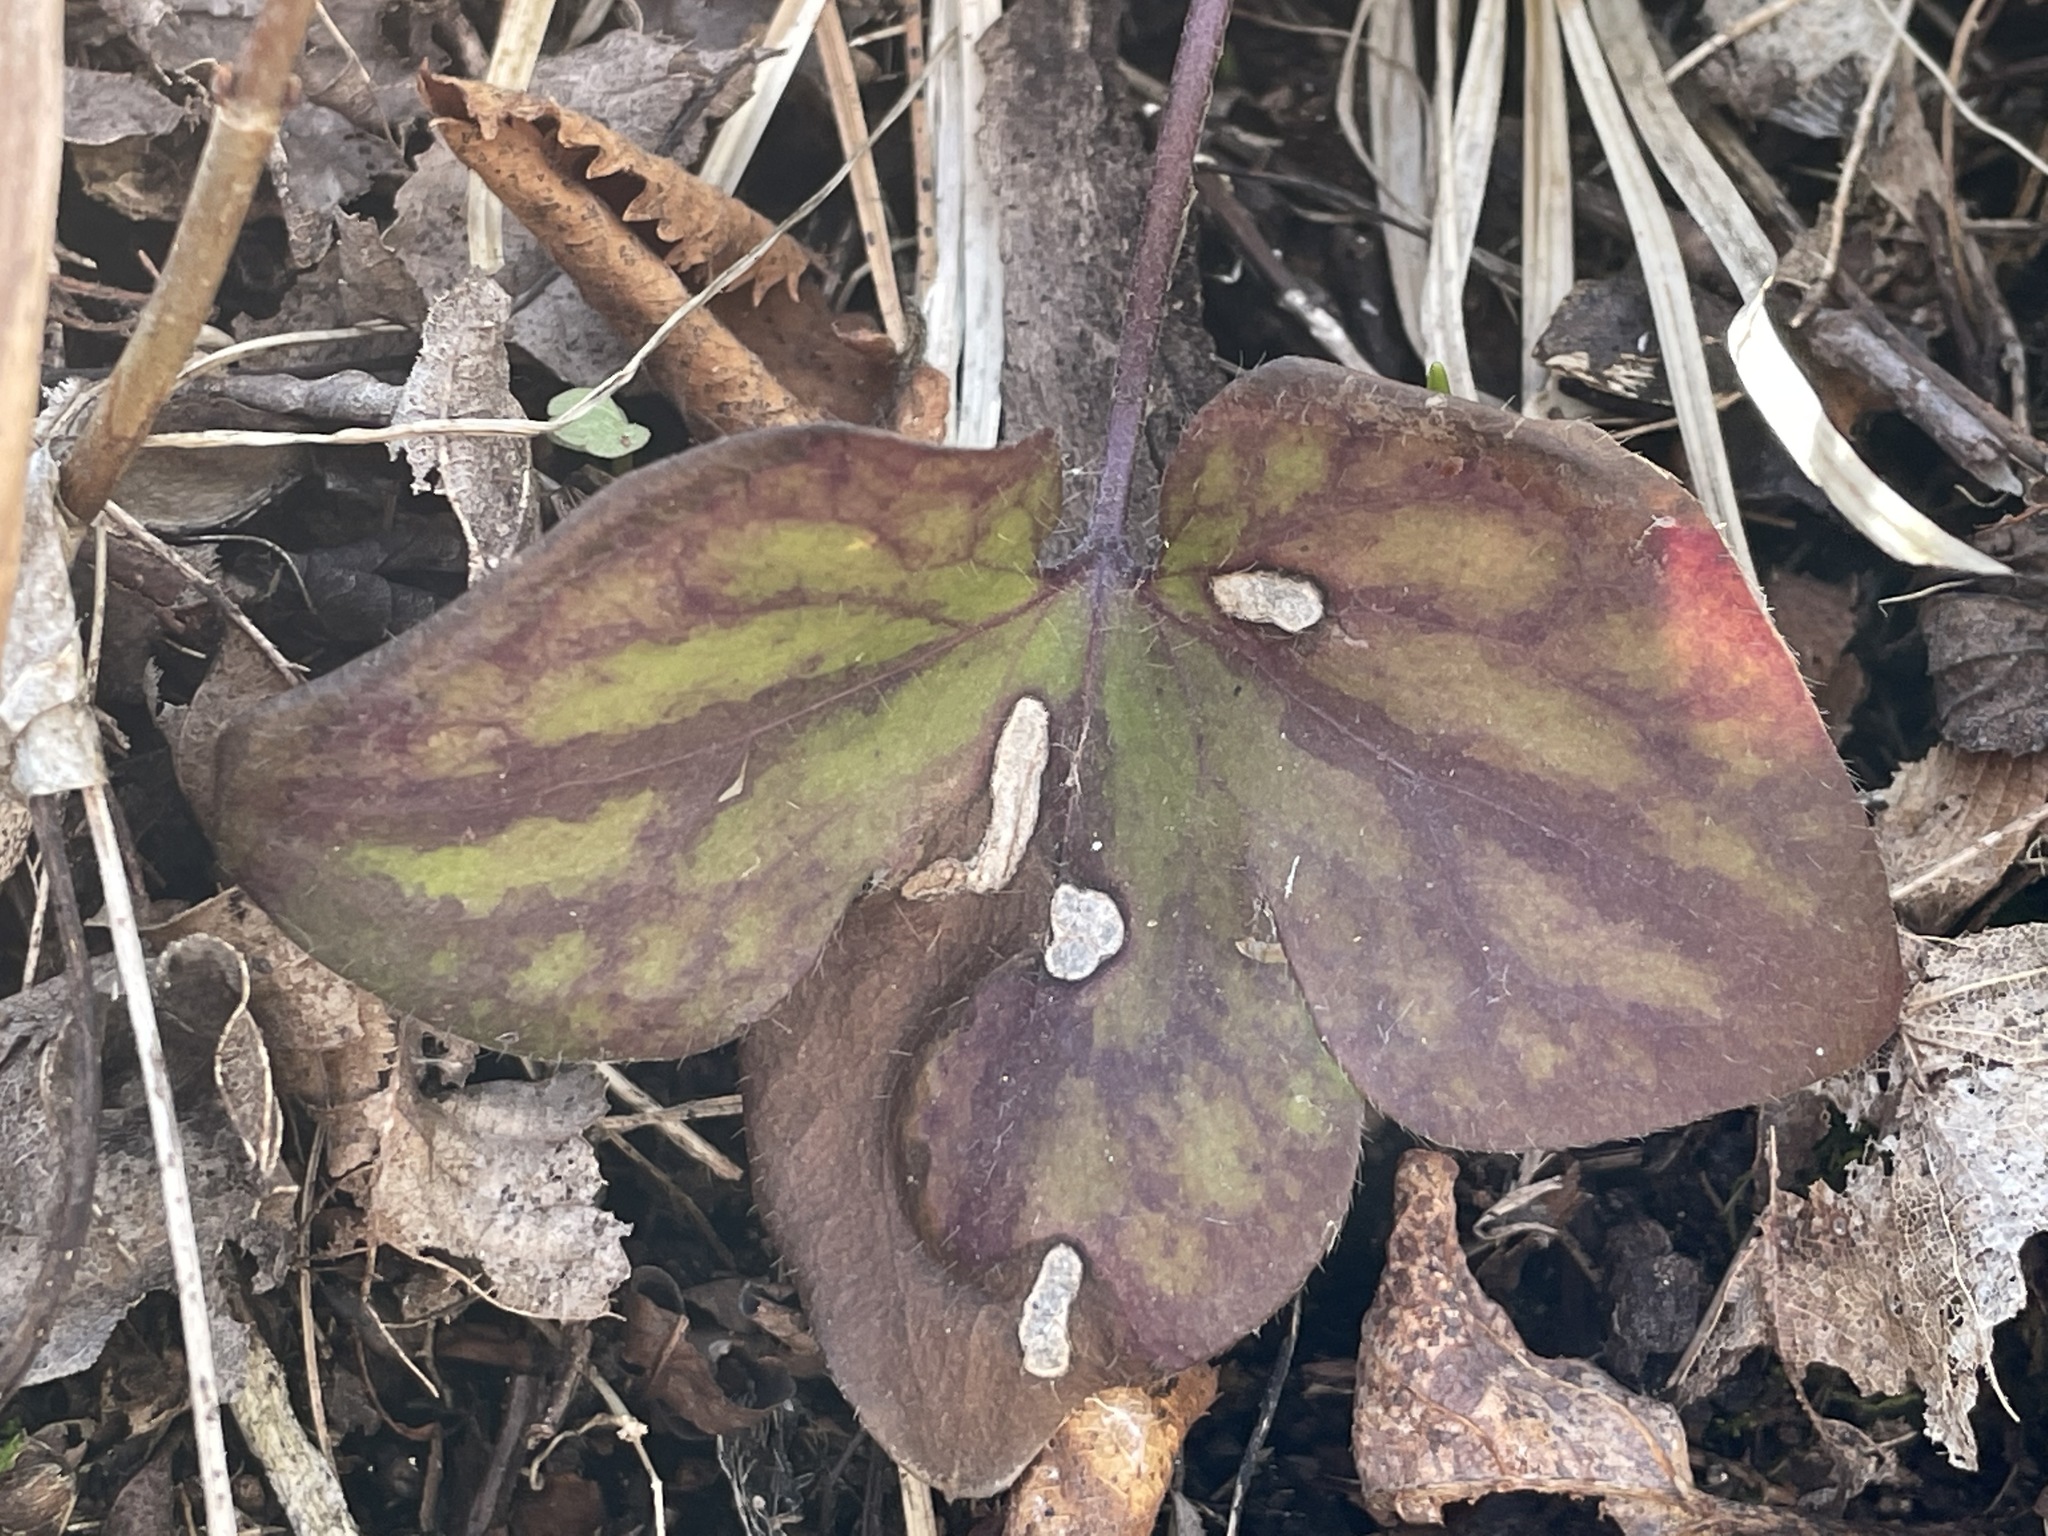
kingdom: Plantae
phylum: Tracheophyta
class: Magnoliopsida
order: Ranunculales
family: Ranunculaceae
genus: Hepatica
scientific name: Hepatica acutiloba
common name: Sharp-lobed hepatica
